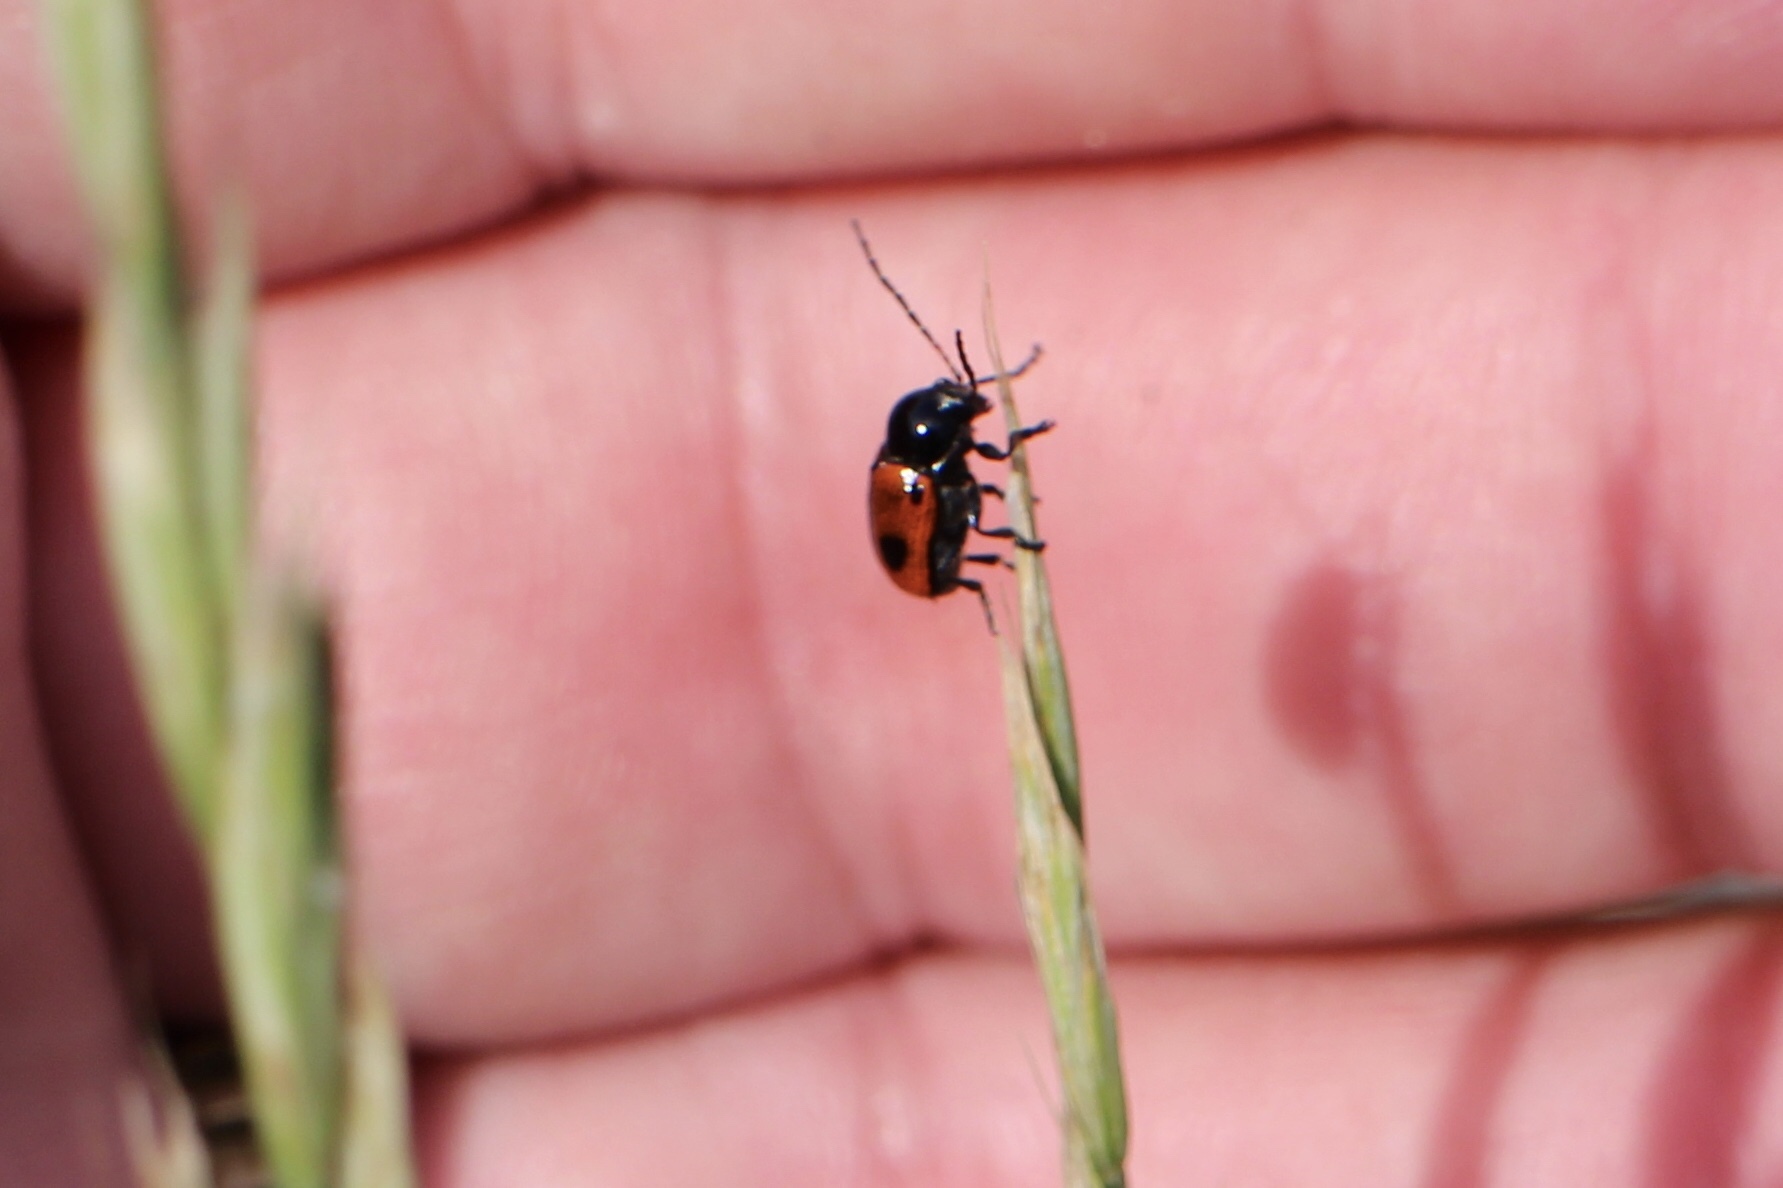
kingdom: Animalia
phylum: Arthropoda
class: Insecta
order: Coleoptera
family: Chrysomelidae
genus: Chiridopsis
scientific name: Chiridopsis bipunctata
